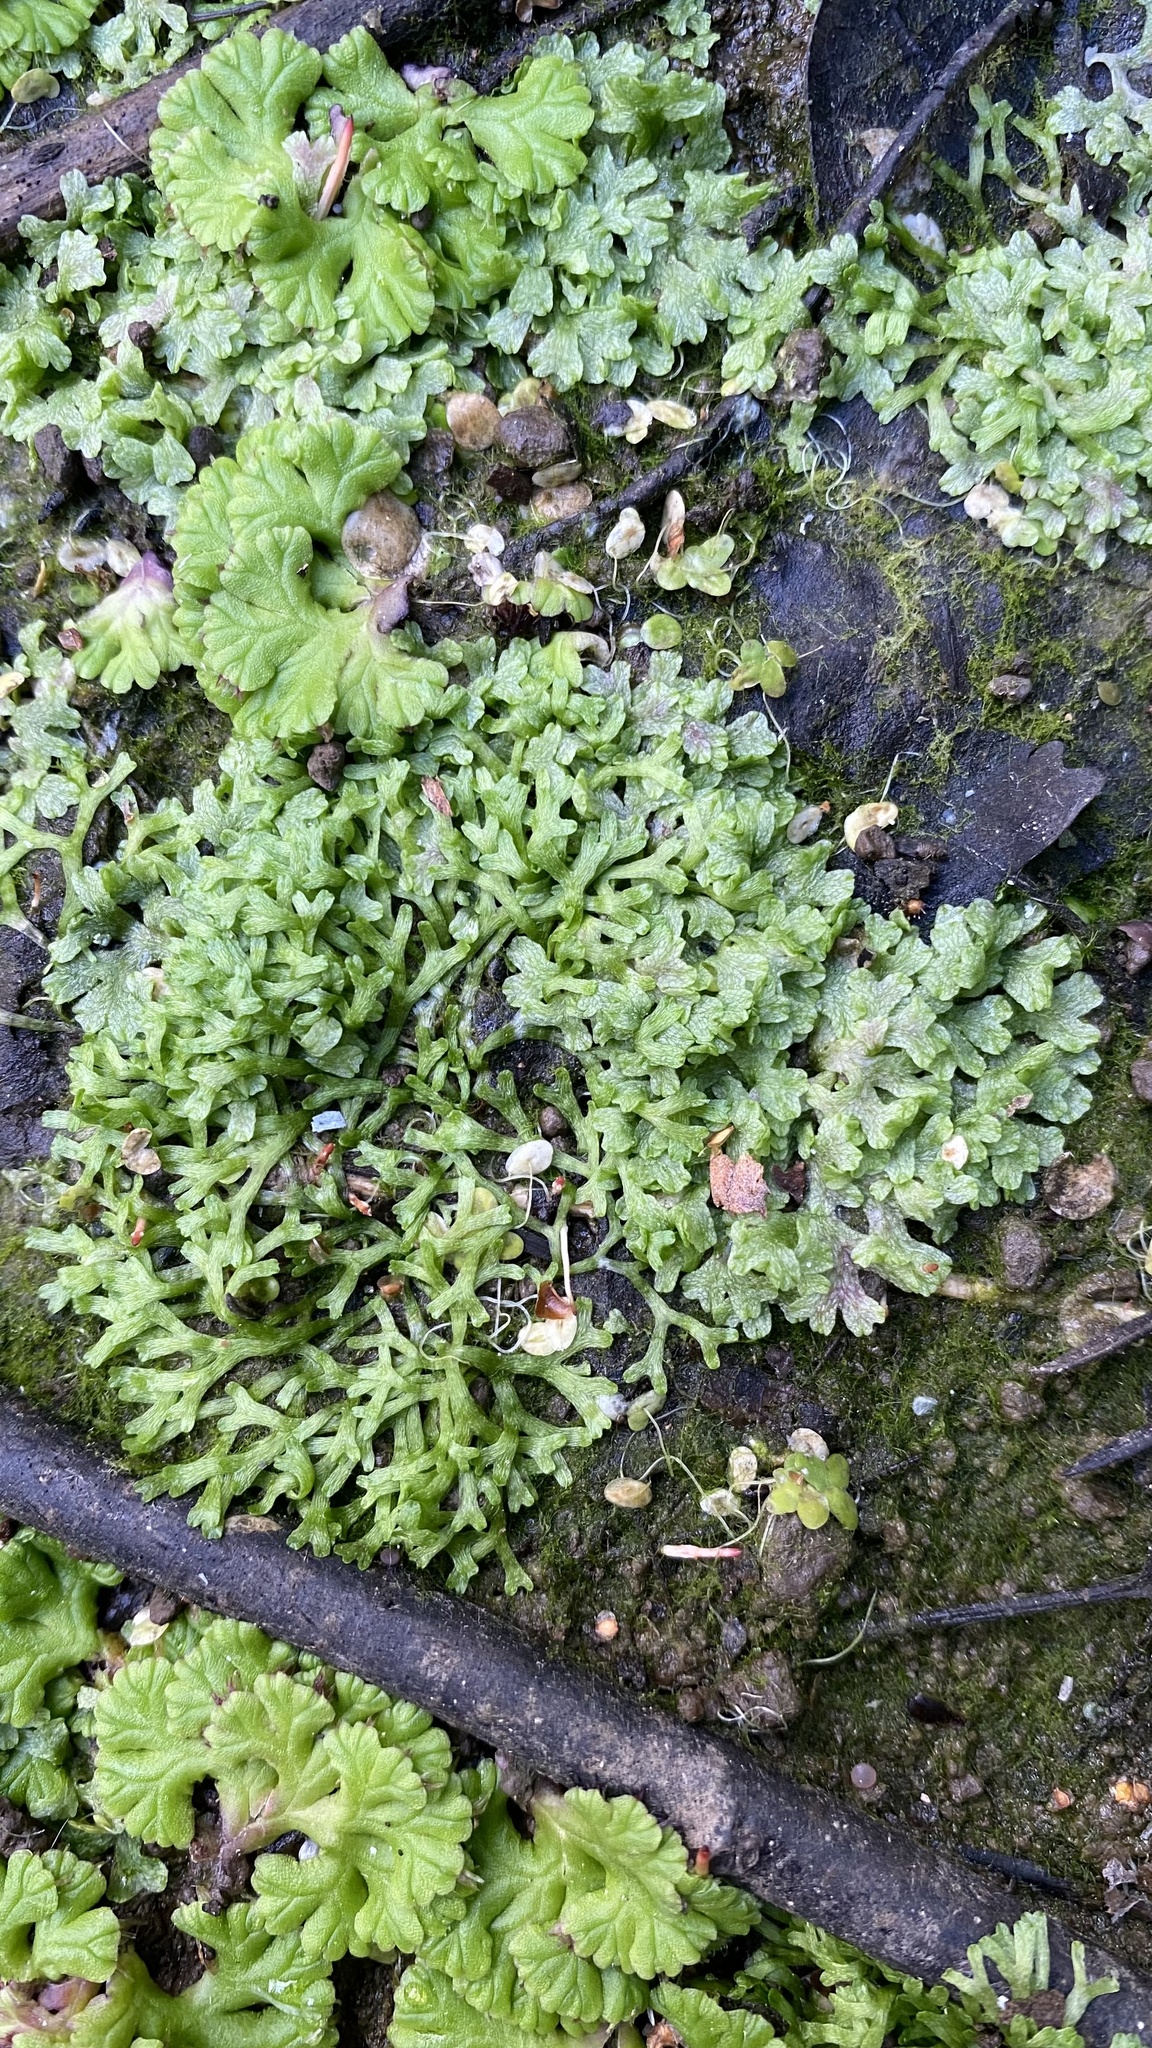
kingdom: Plantae
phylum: Marchantiophyta
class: Marchantiopsida
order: Marchantiales
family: Ricciaceae
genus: Riccia
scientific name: Riccia rhenana
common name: Pond crystalwort
